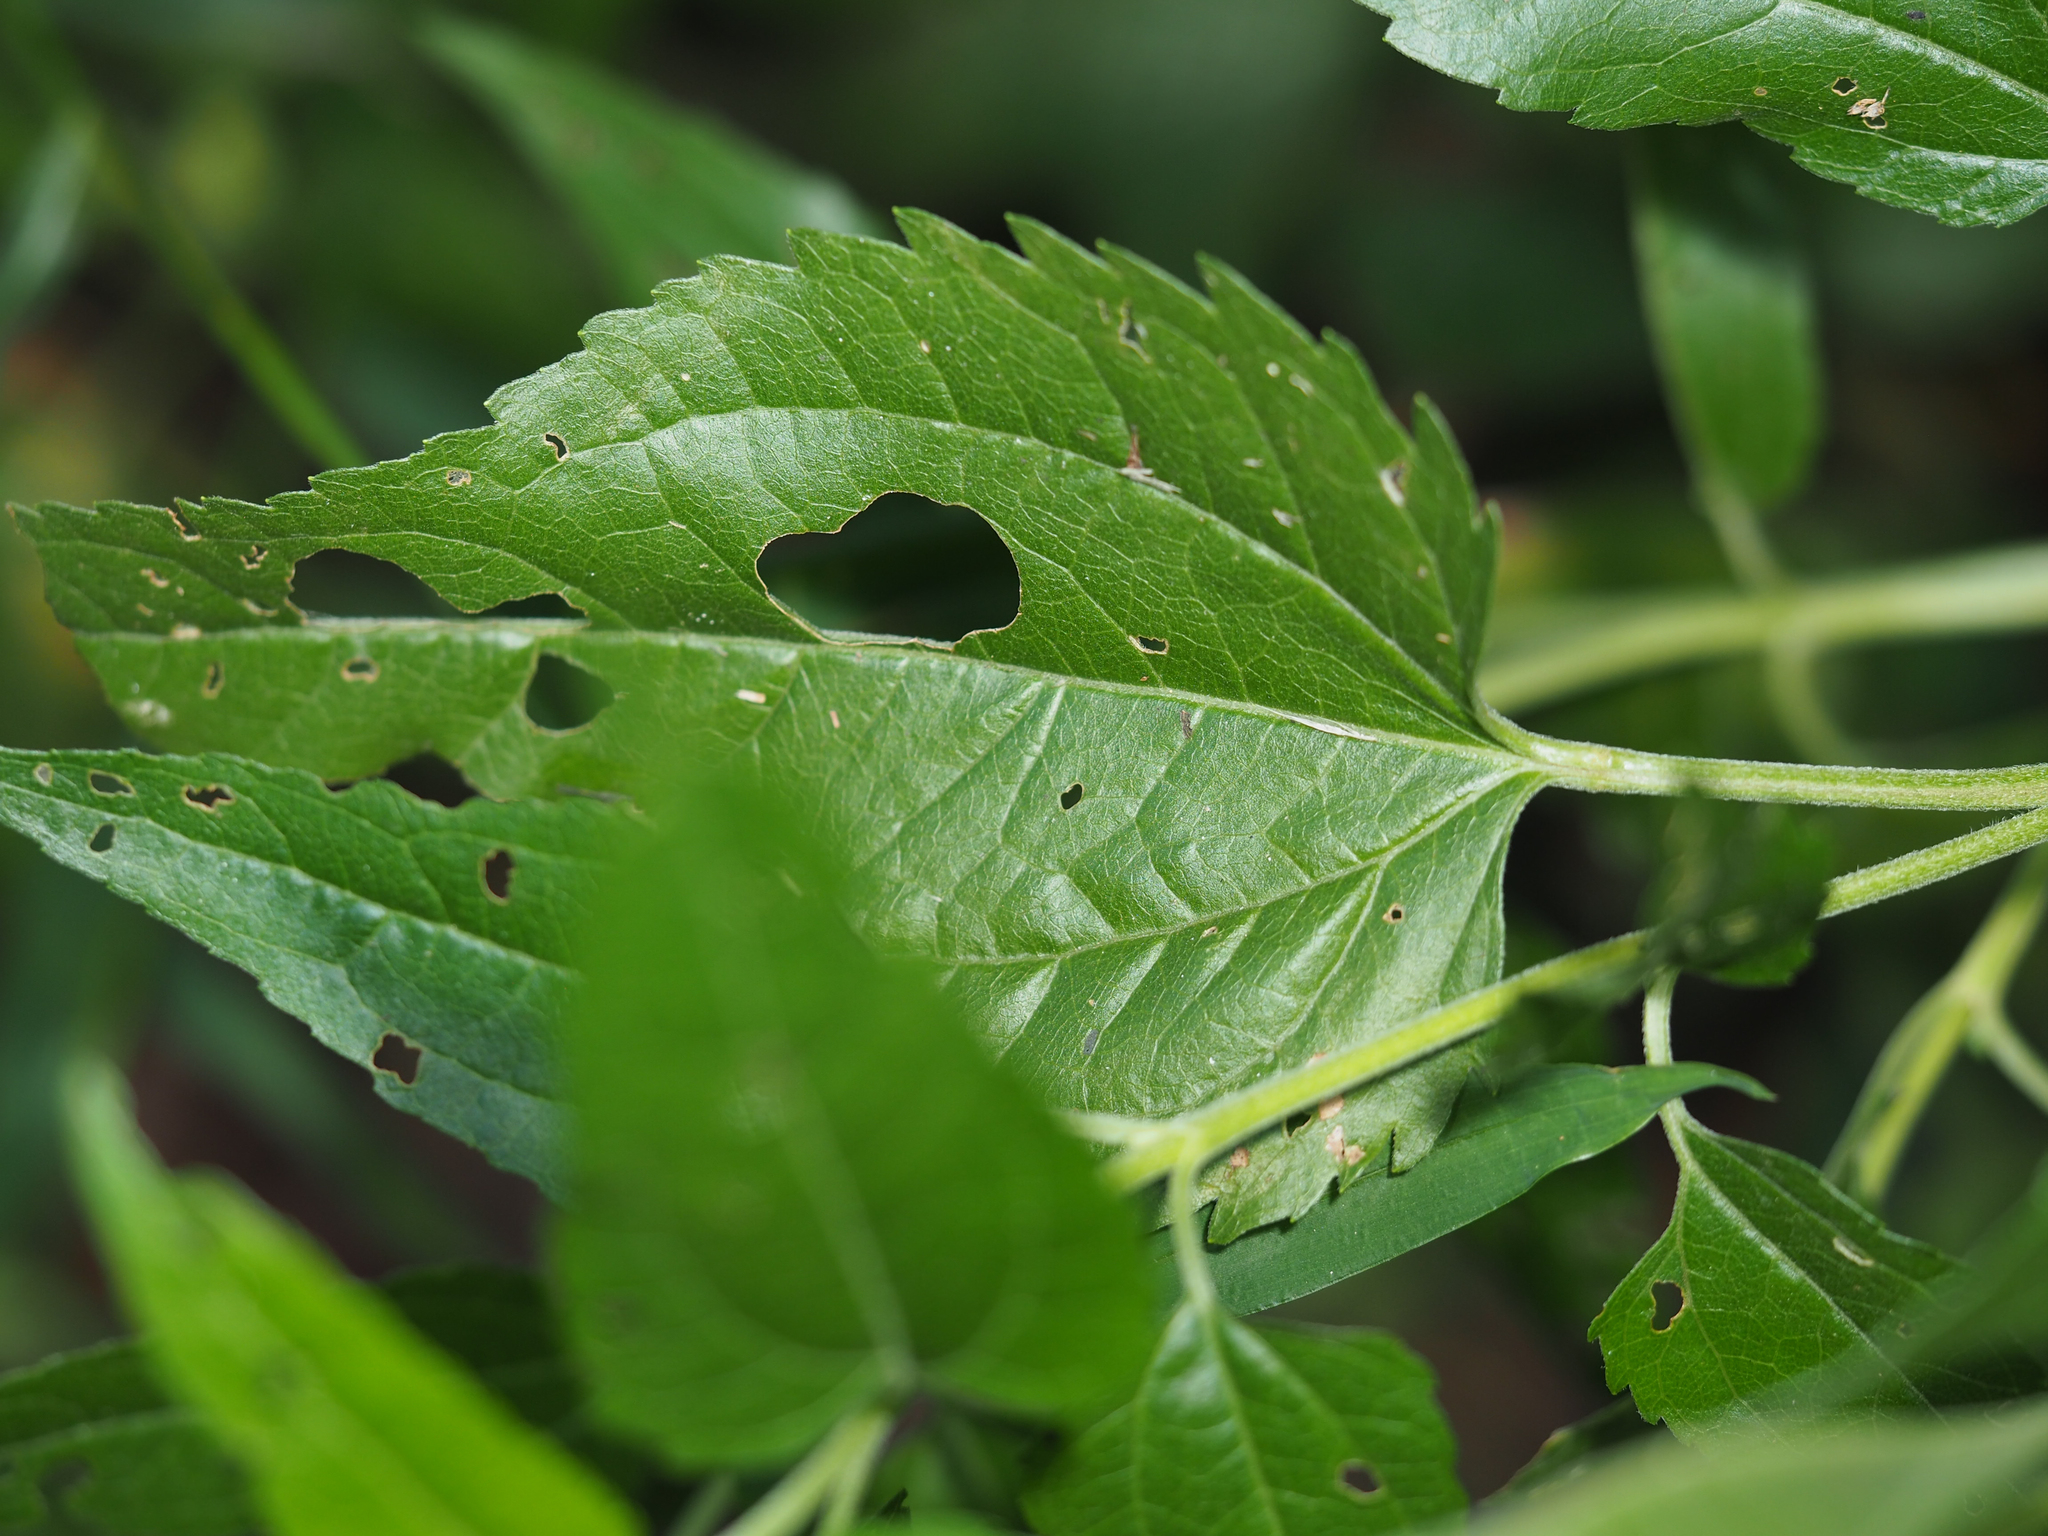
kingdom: Plantae
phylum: Tracheophyta
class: Magnoliopsida
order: Asterales
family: Asteraceae
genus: Eupatorium
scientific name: Eupatorium serotinum
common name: Late boneset
